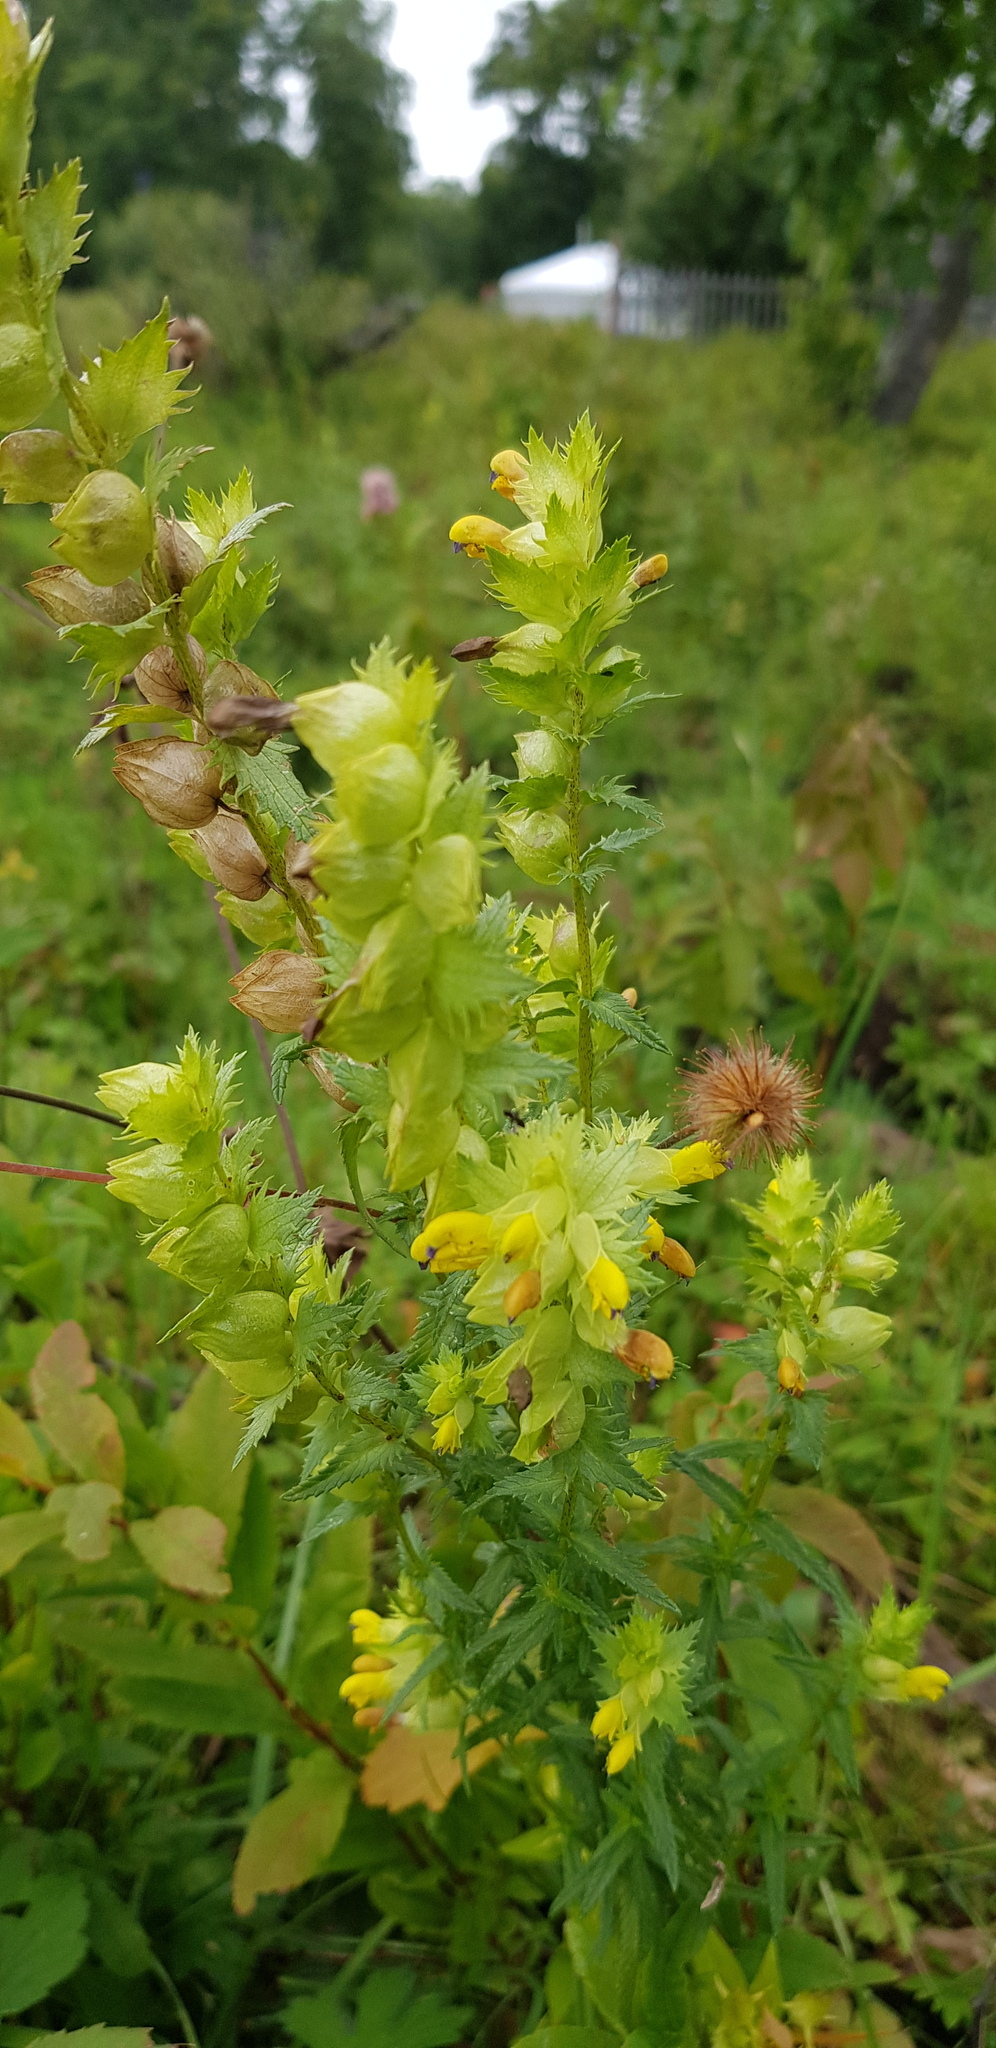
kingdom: Plantae
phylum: Tracheophyta
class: Magnoliopsida
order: Lamiales
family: Orobanchaceae
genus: Rhinanthus
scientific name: Rhinanthus serotinus
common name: Late-flowering yellow rattle
